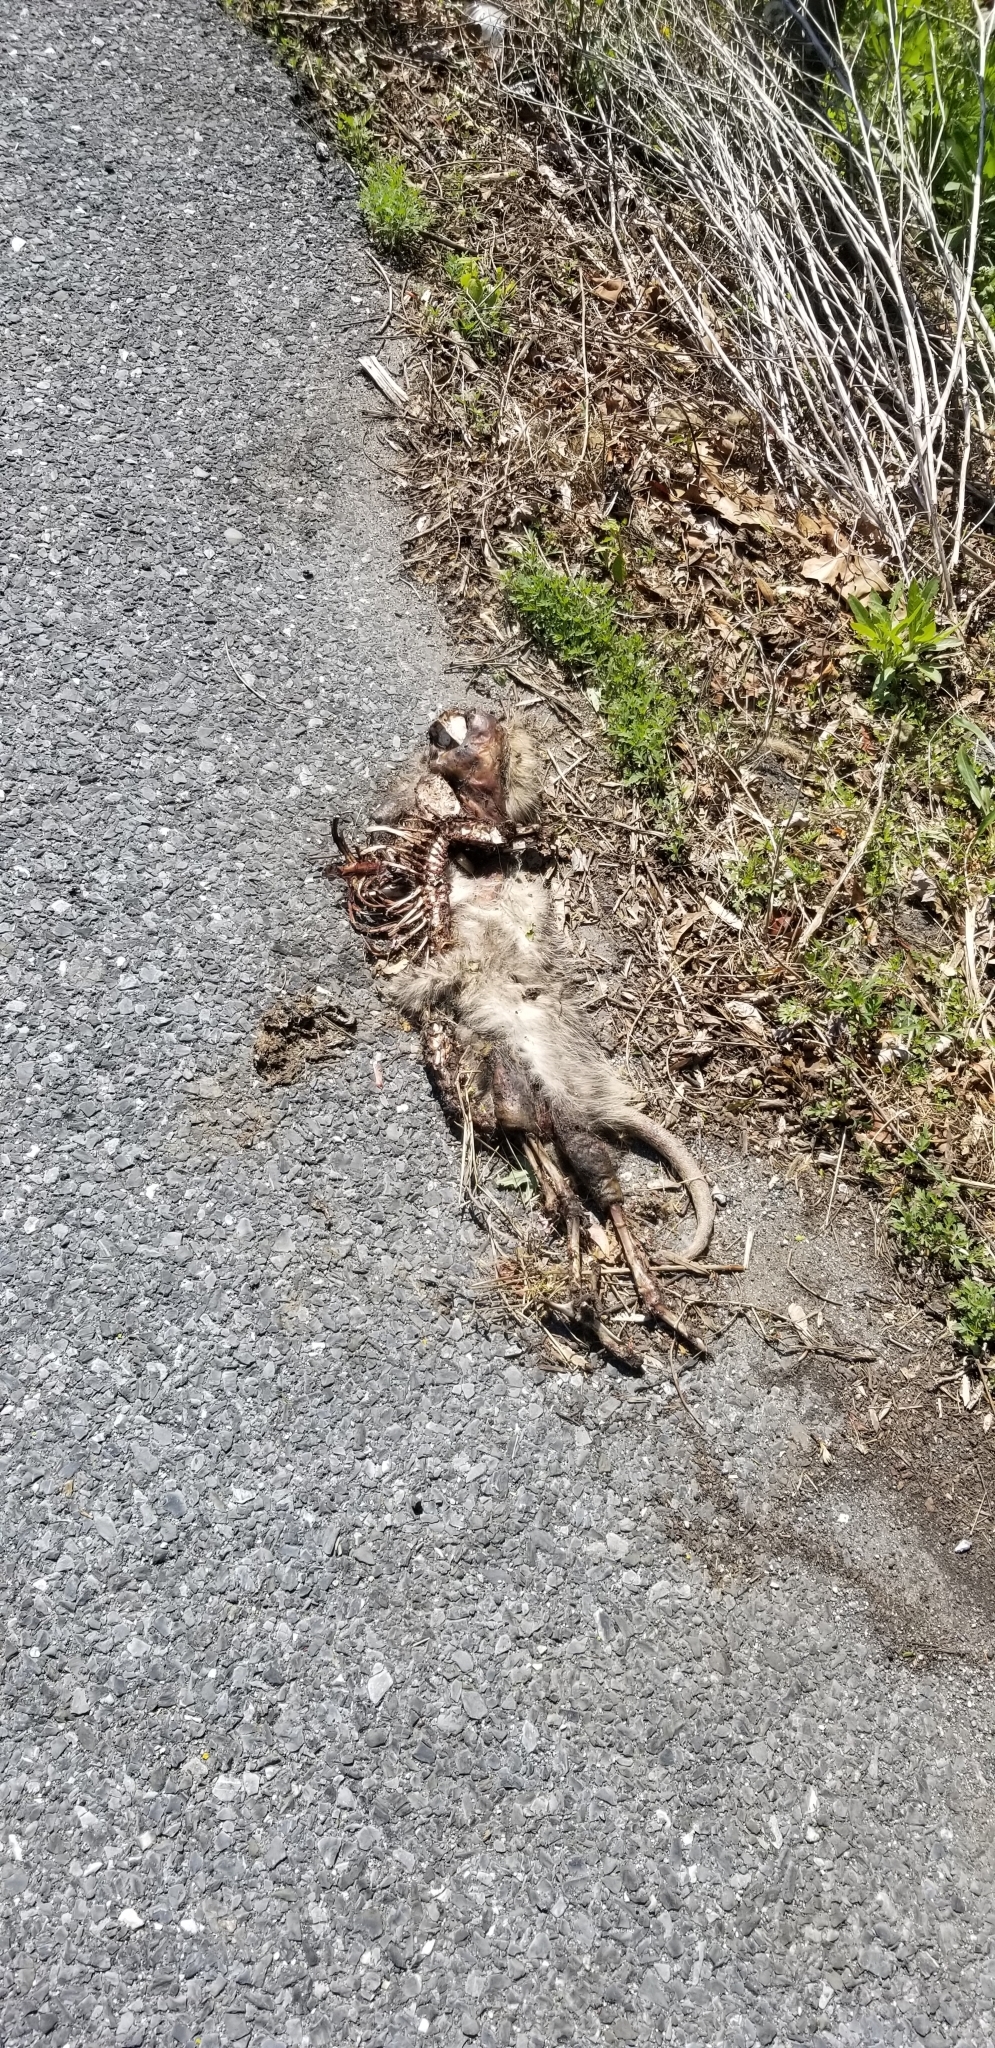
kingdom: Animalia
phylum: Chordata
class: Mammalia
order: Didelphimorphia
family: Didelphidae
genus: Didelphis
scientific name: Didelphis virginiana
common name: Virginia opossum
